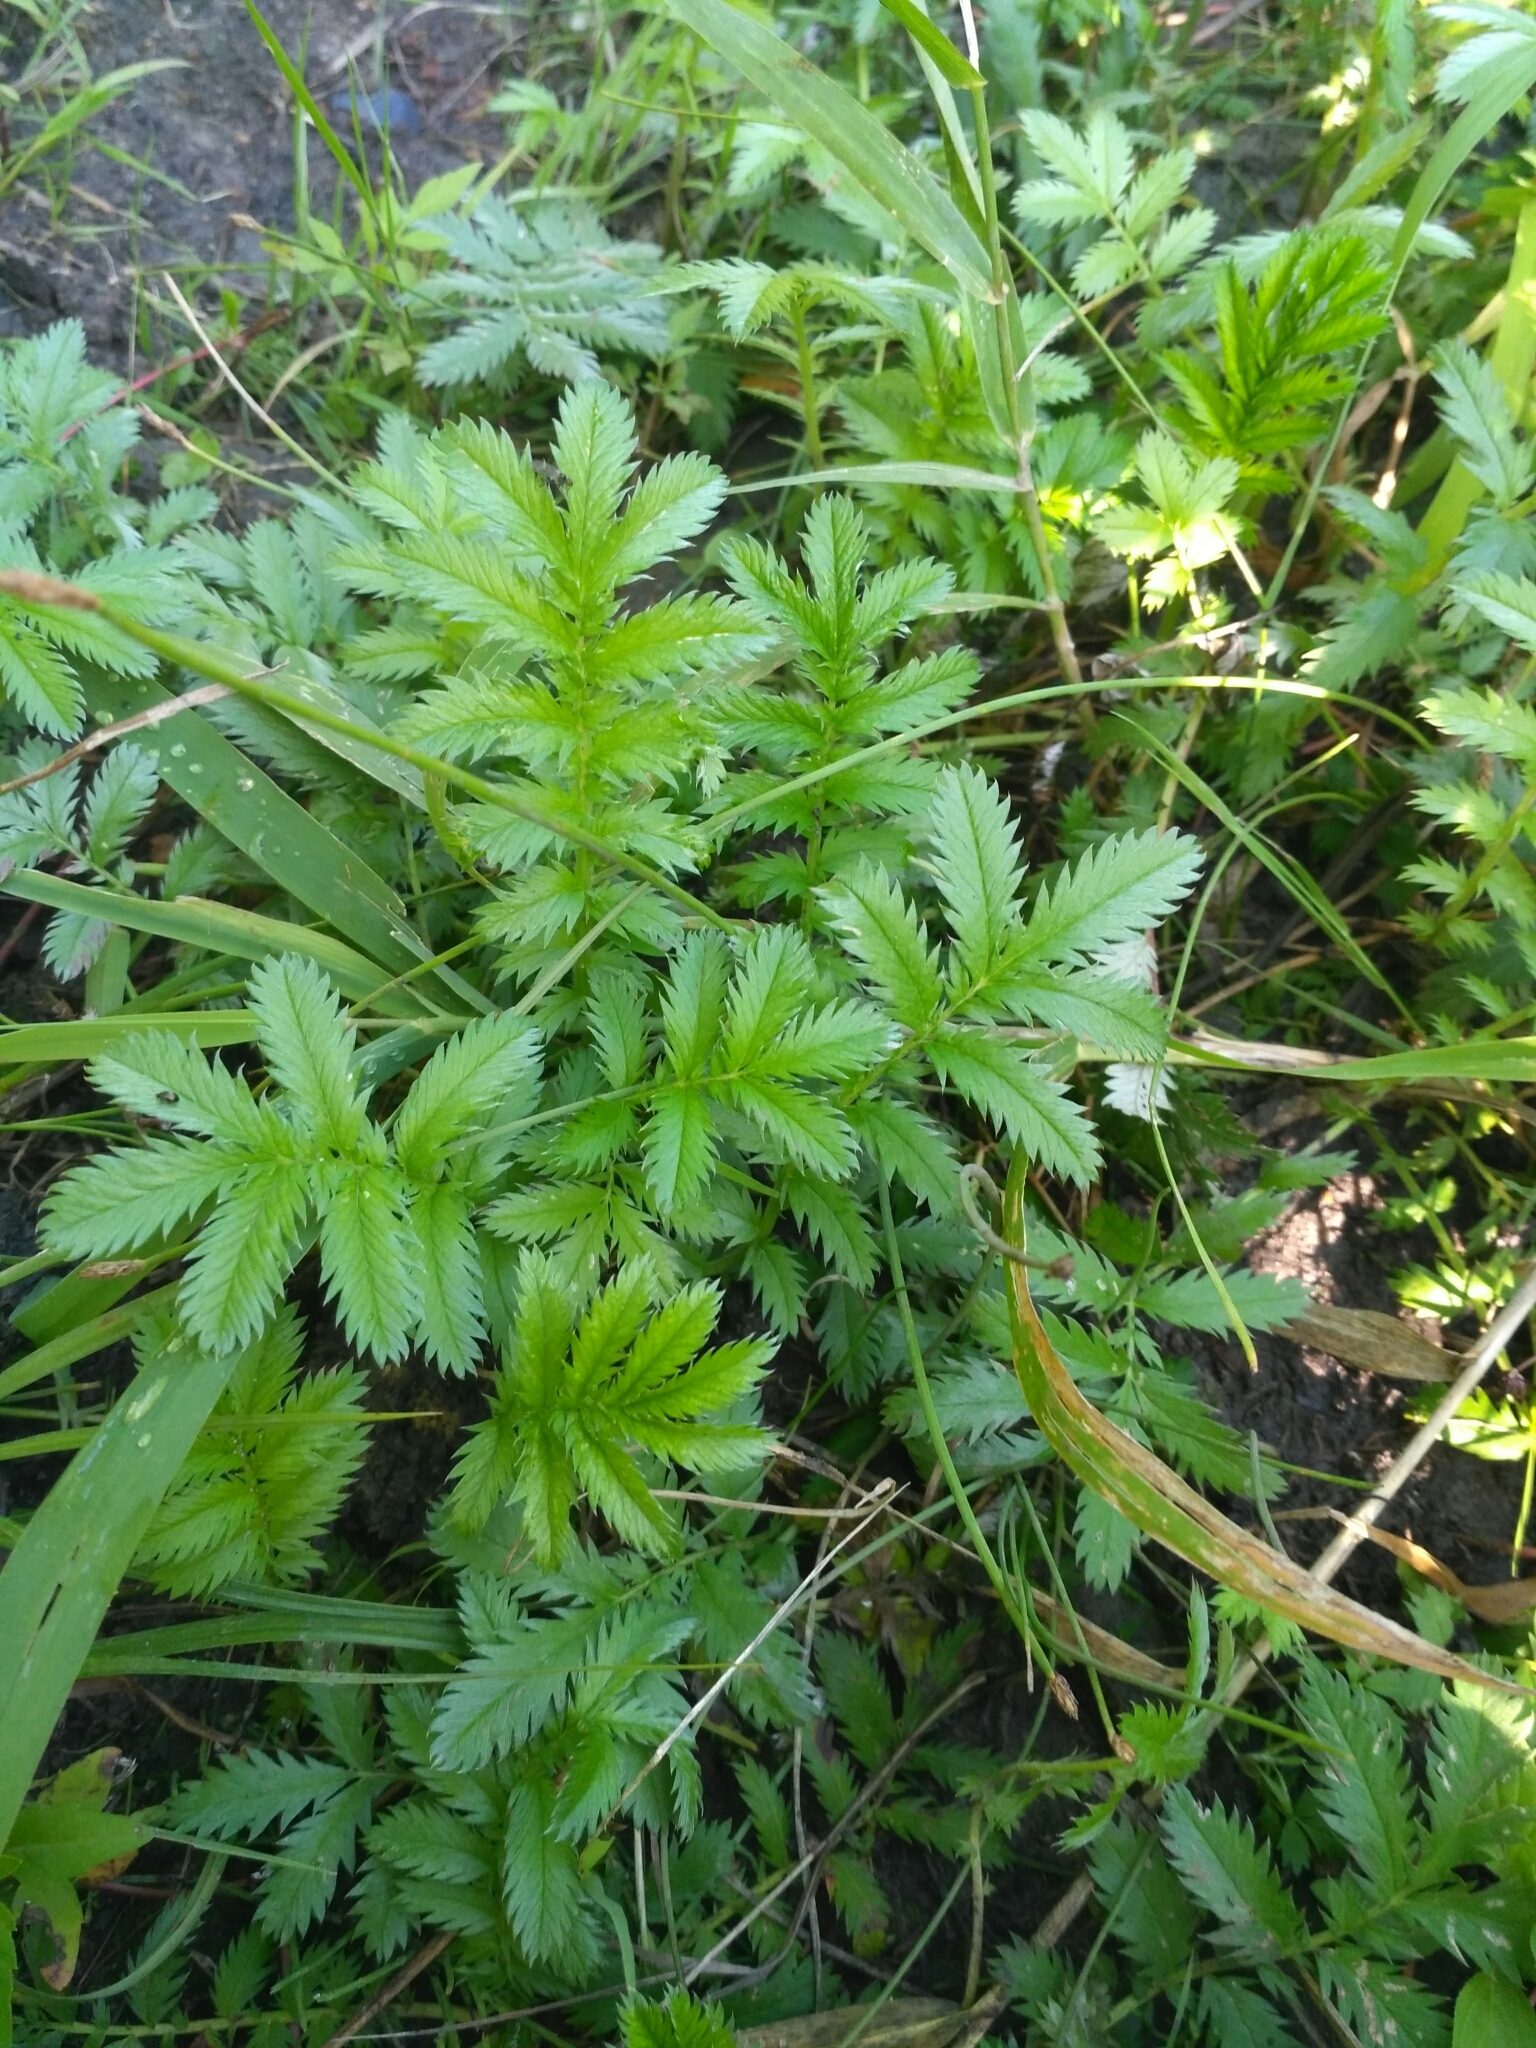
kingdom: Plantae
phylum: Tracheophyta
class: Magnoliopsida
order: Rosales
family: Rosaceae
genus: Argentina
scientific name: Argentina anserina
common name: Common silverweed
